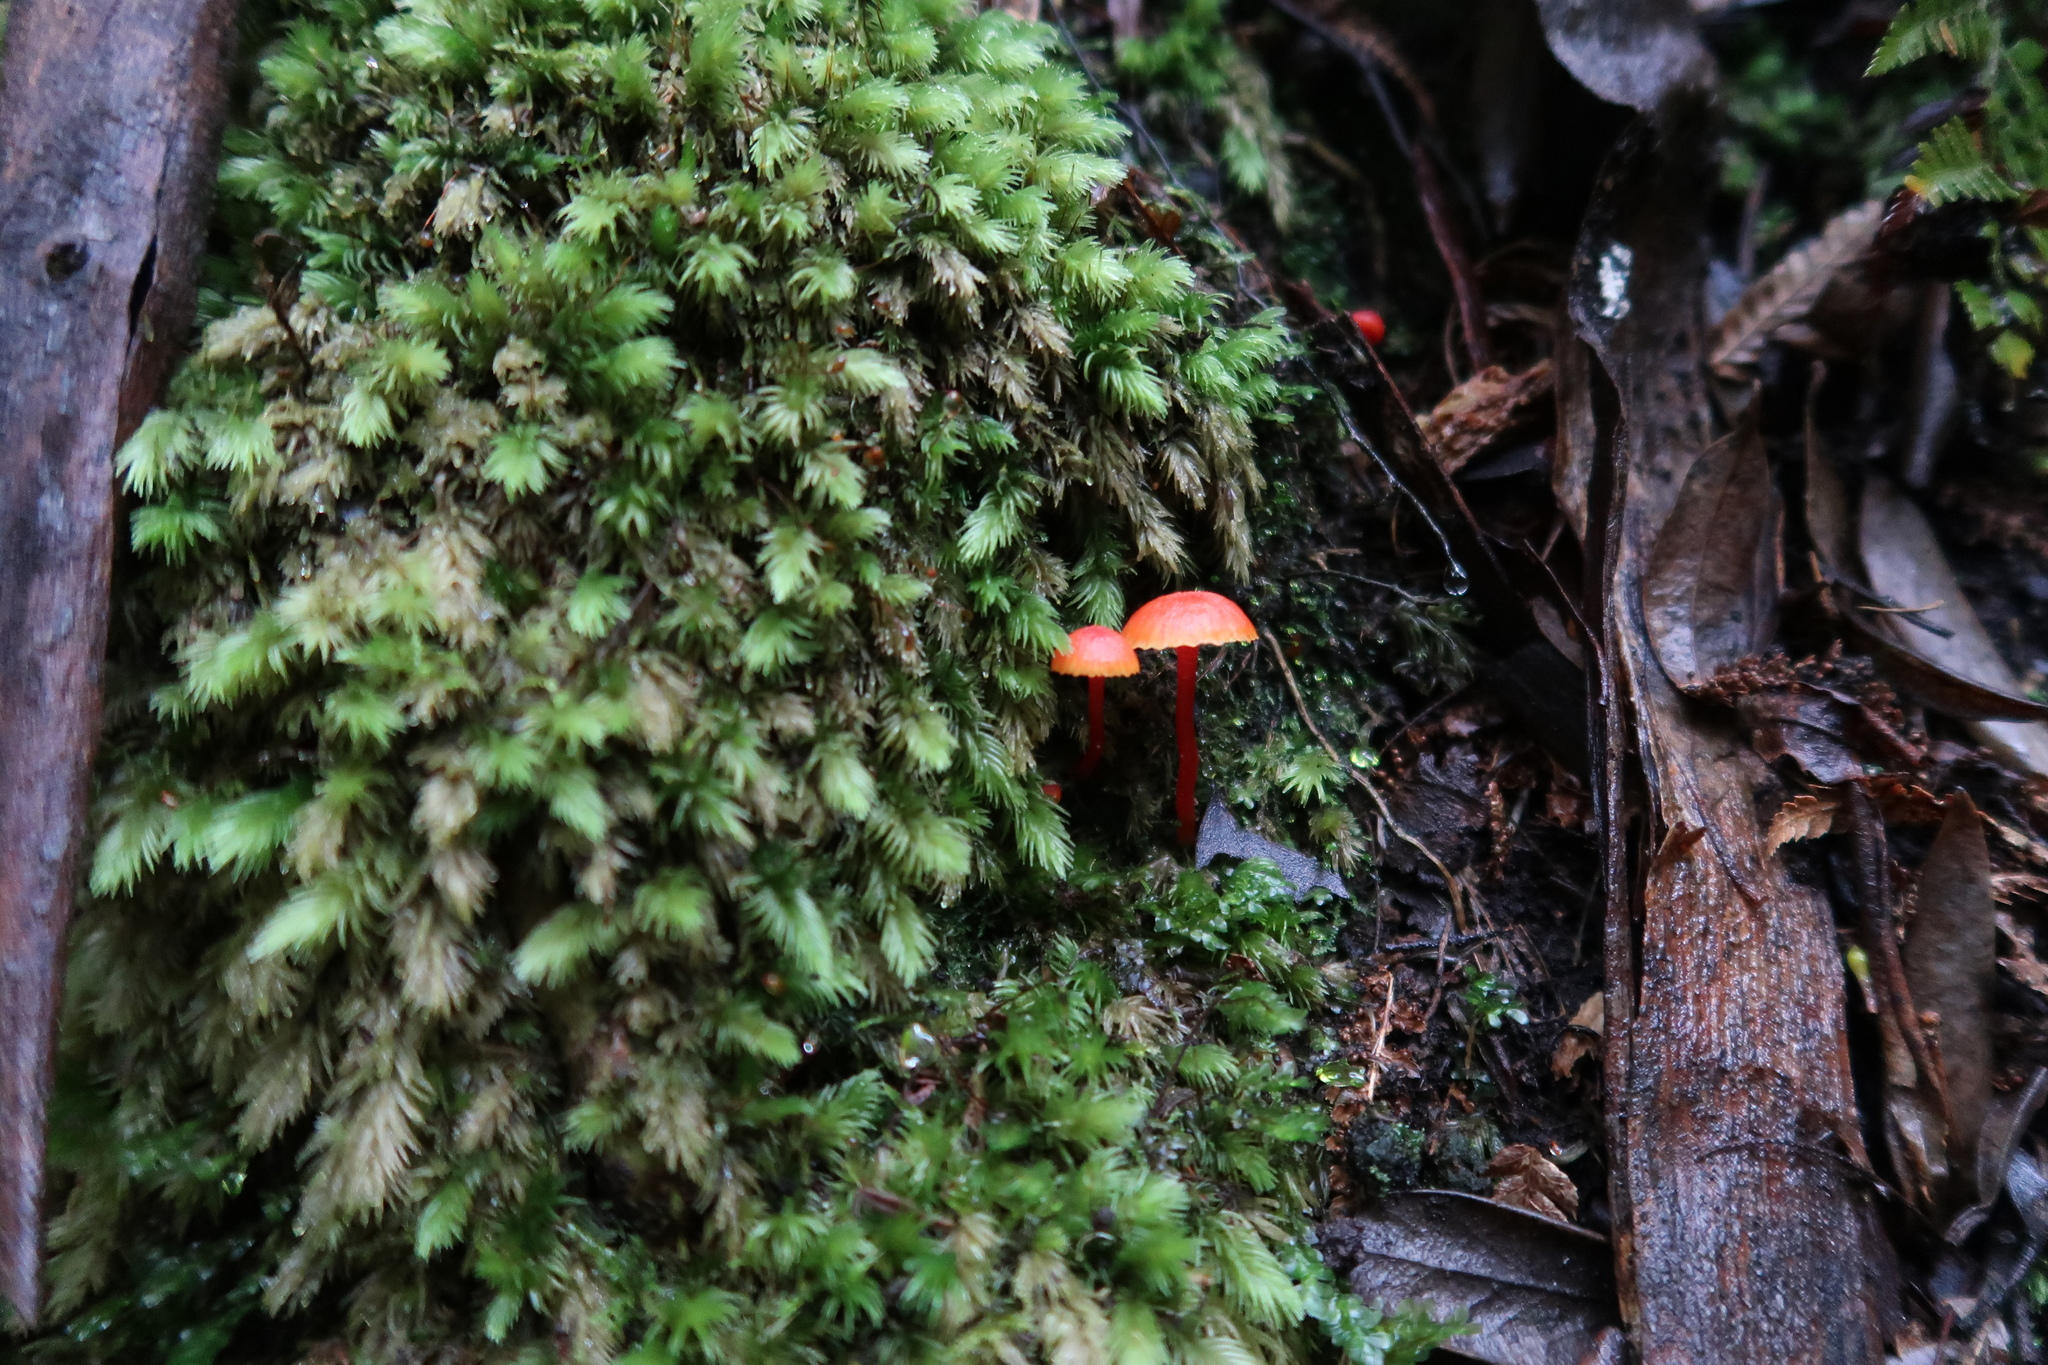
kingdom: Fungi
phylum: Basidiomycota
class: Agaricomycetes
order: Agaricales
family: Hygrophoraceae
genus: Hygrocybe
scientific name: Hygrocybe firma
